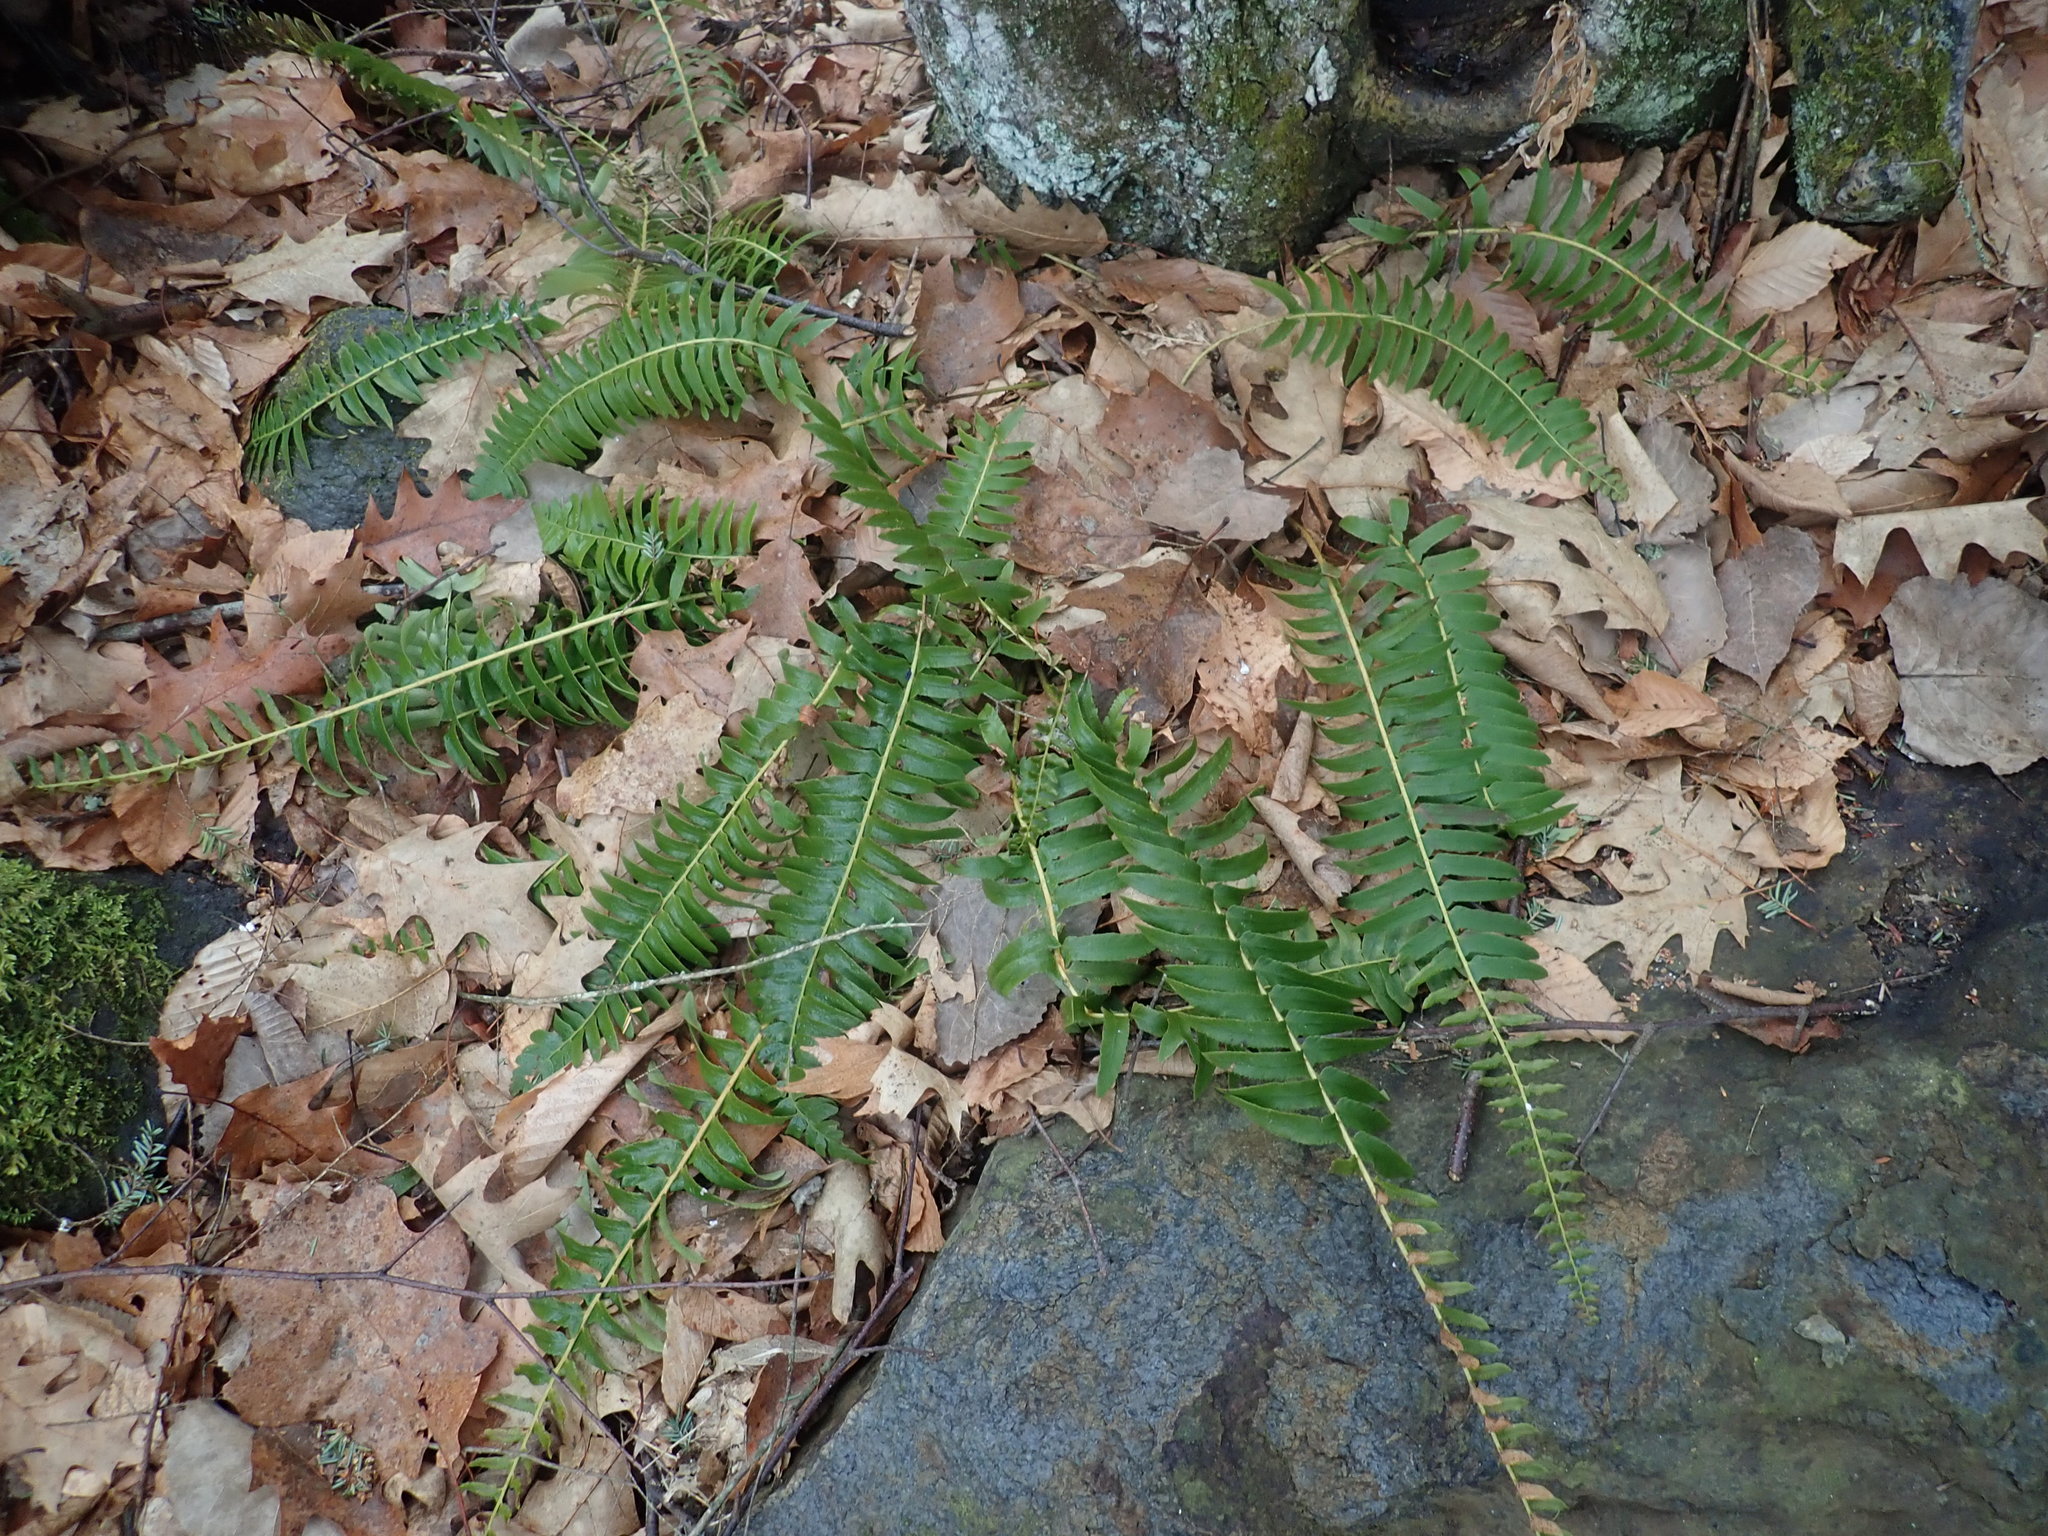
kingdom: Plantae
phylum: Tracheophyta
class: Polypodiopsida
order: Polypodiales
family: Dryopteridaceae
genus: Polystichum
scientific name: Polystichum acrostichoides
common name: Christmas fern
